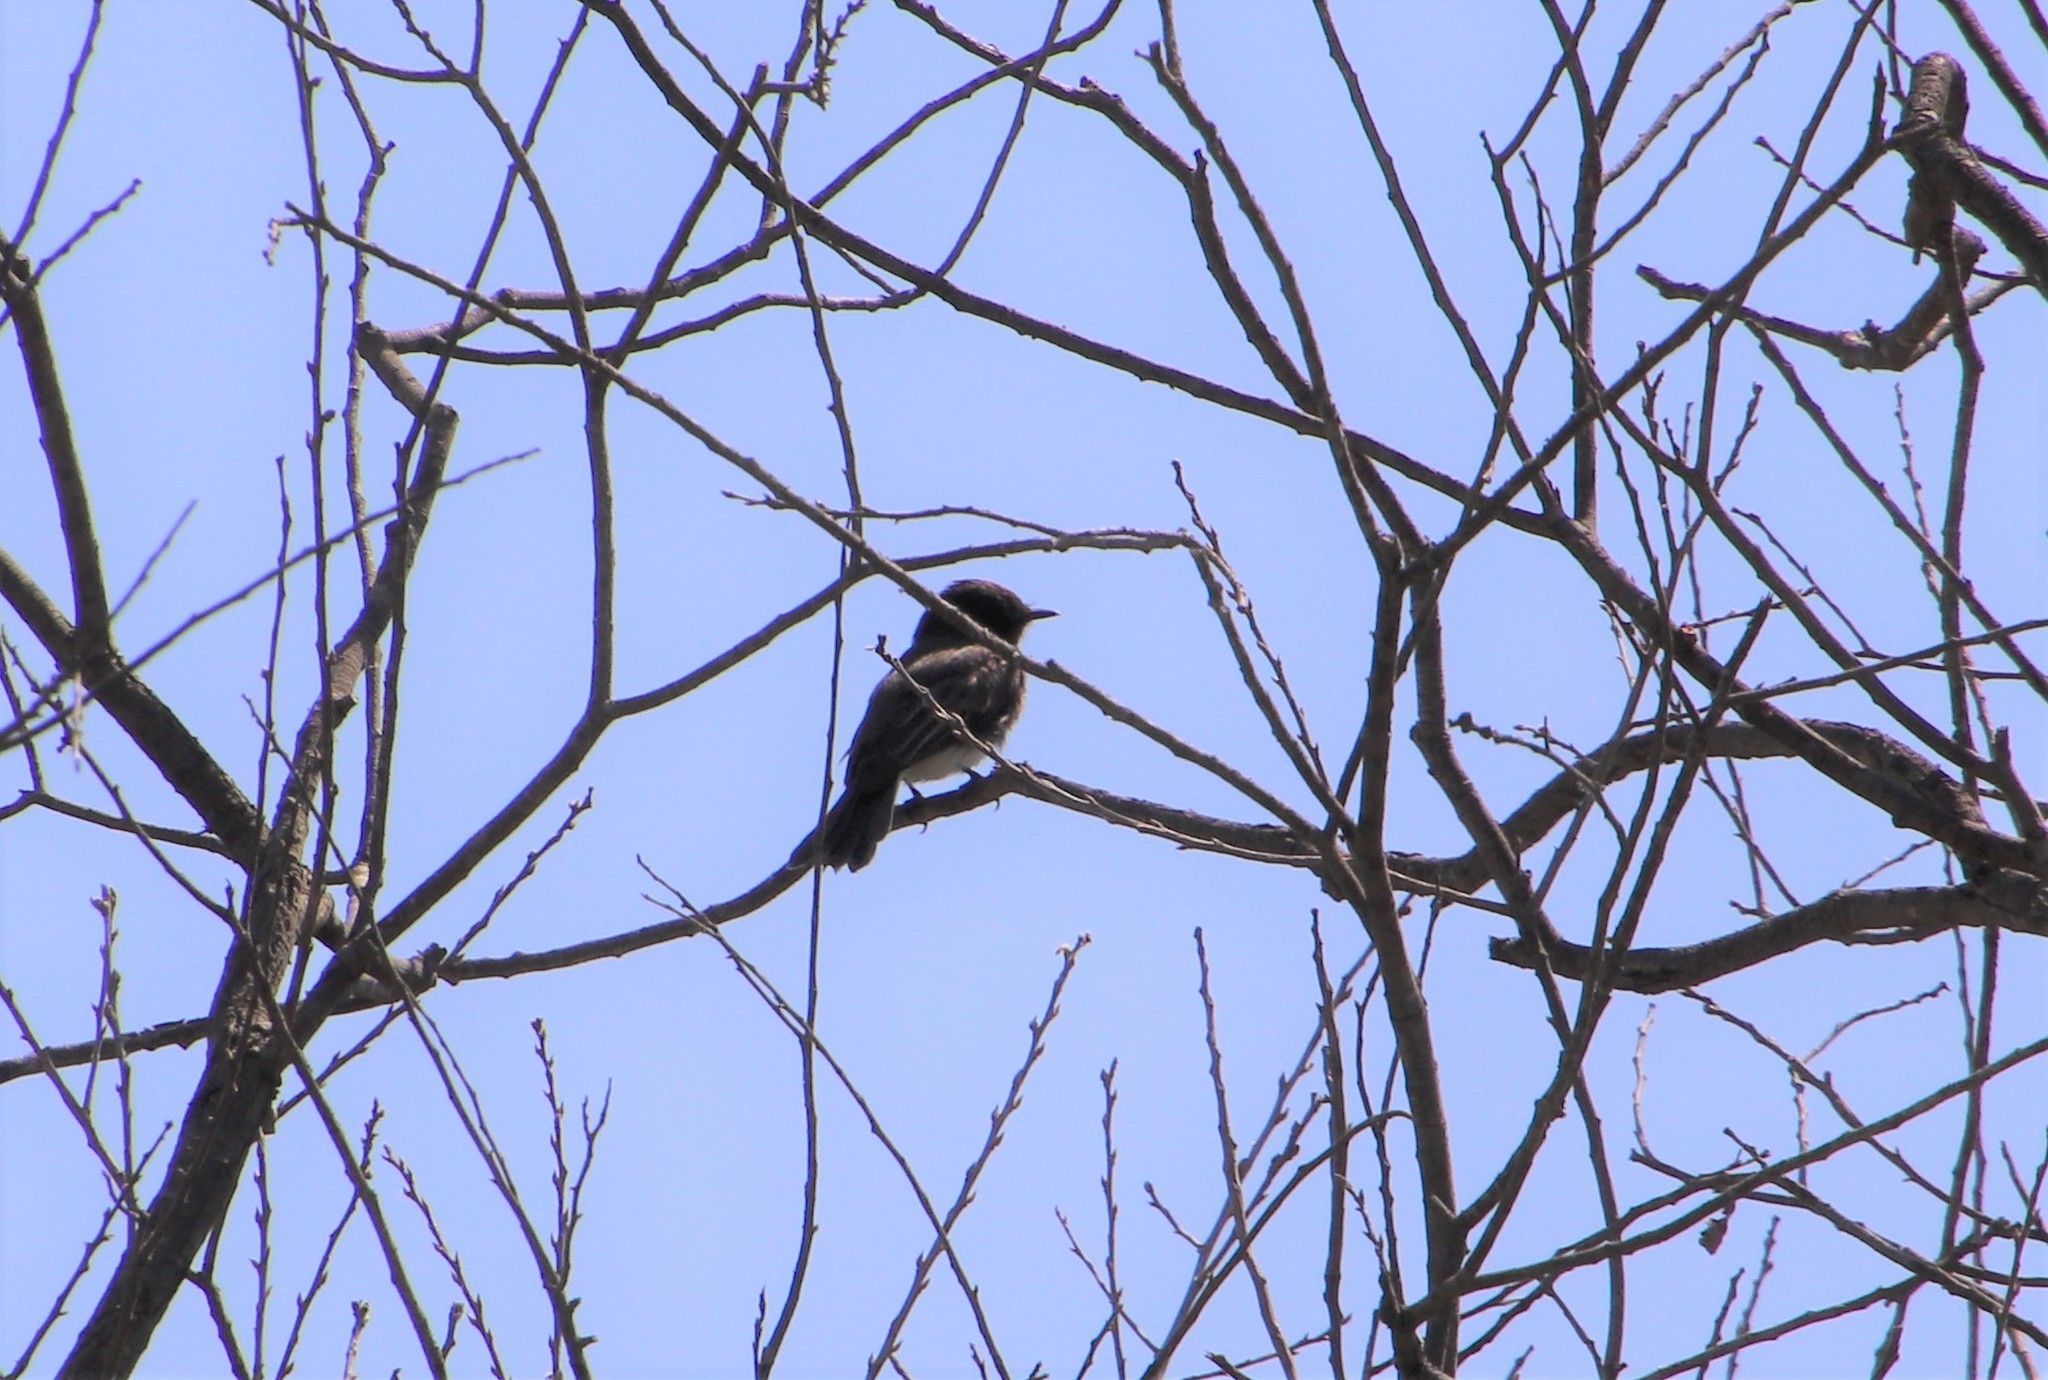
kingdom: Animalia
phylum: Chordata
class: Aves
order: Passeriformes
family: Tyrannidae
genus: Sayornis
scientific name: Sayornis nigricans
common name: Black phoebe
